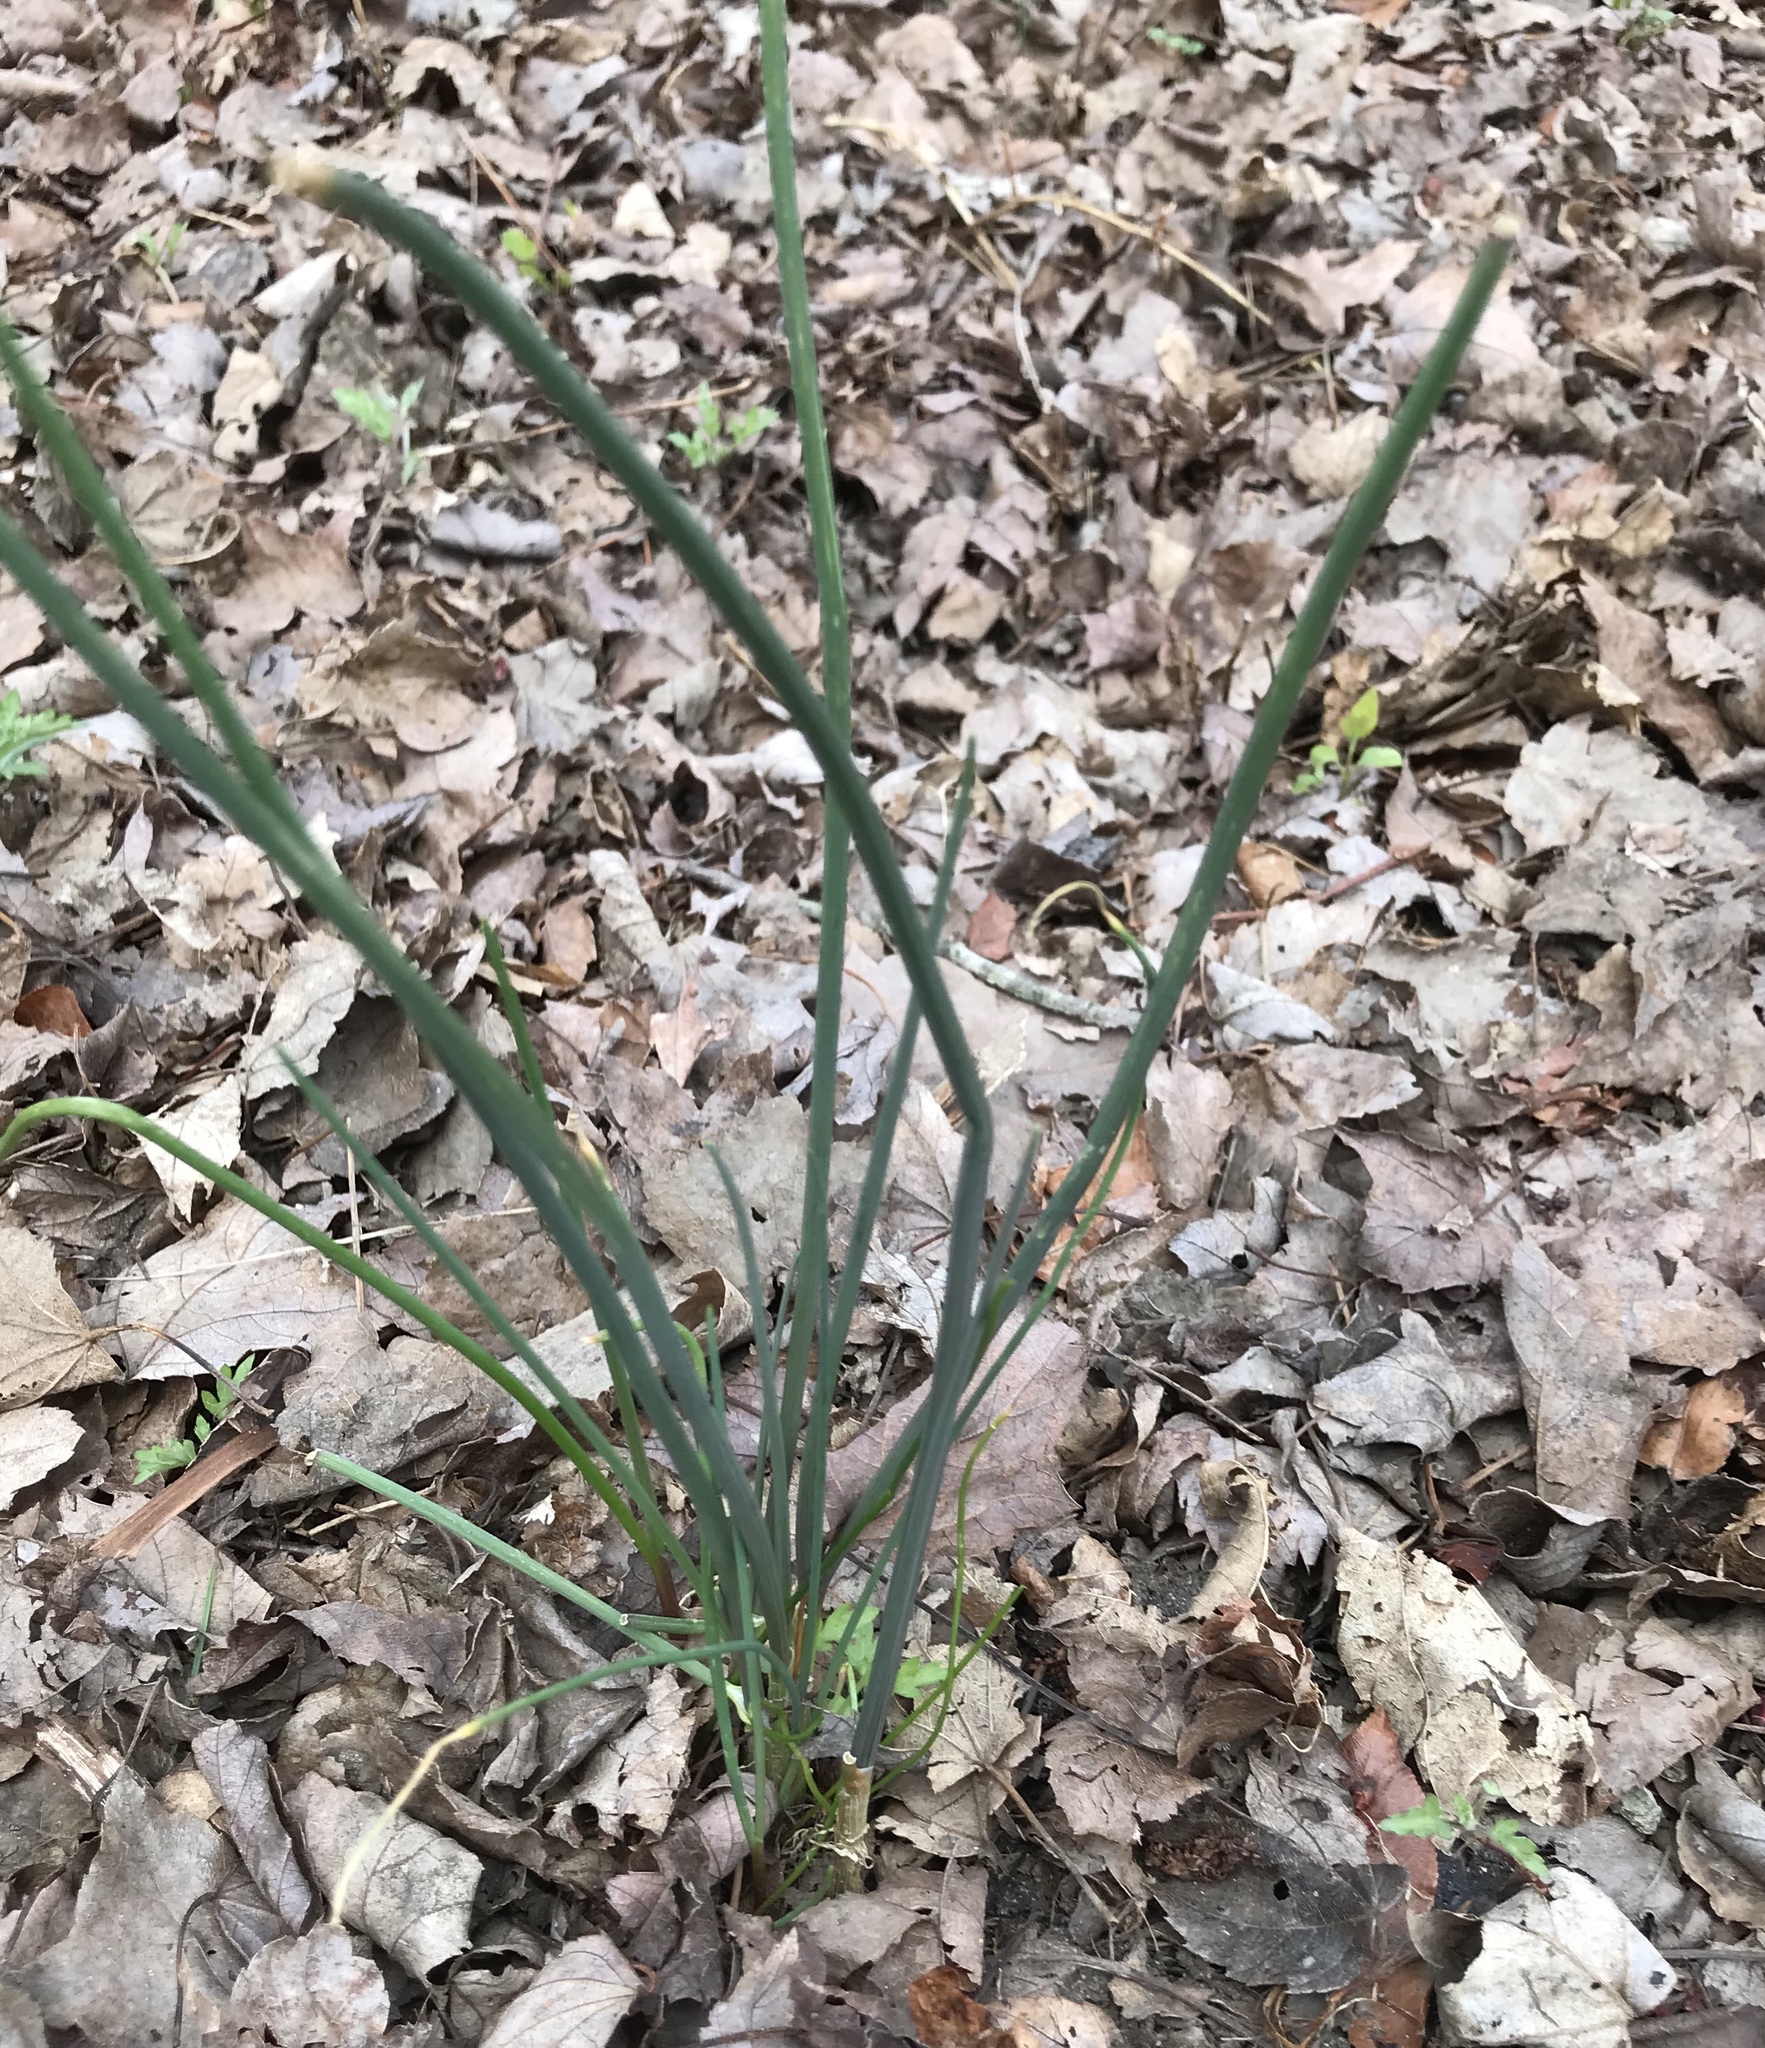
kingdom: Plantae
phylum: Tracheophyta
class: Liliopsida
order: Asparagales
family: Amaryllidaceae
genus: Allium
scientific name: Allium vineale
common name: Crow garlic
